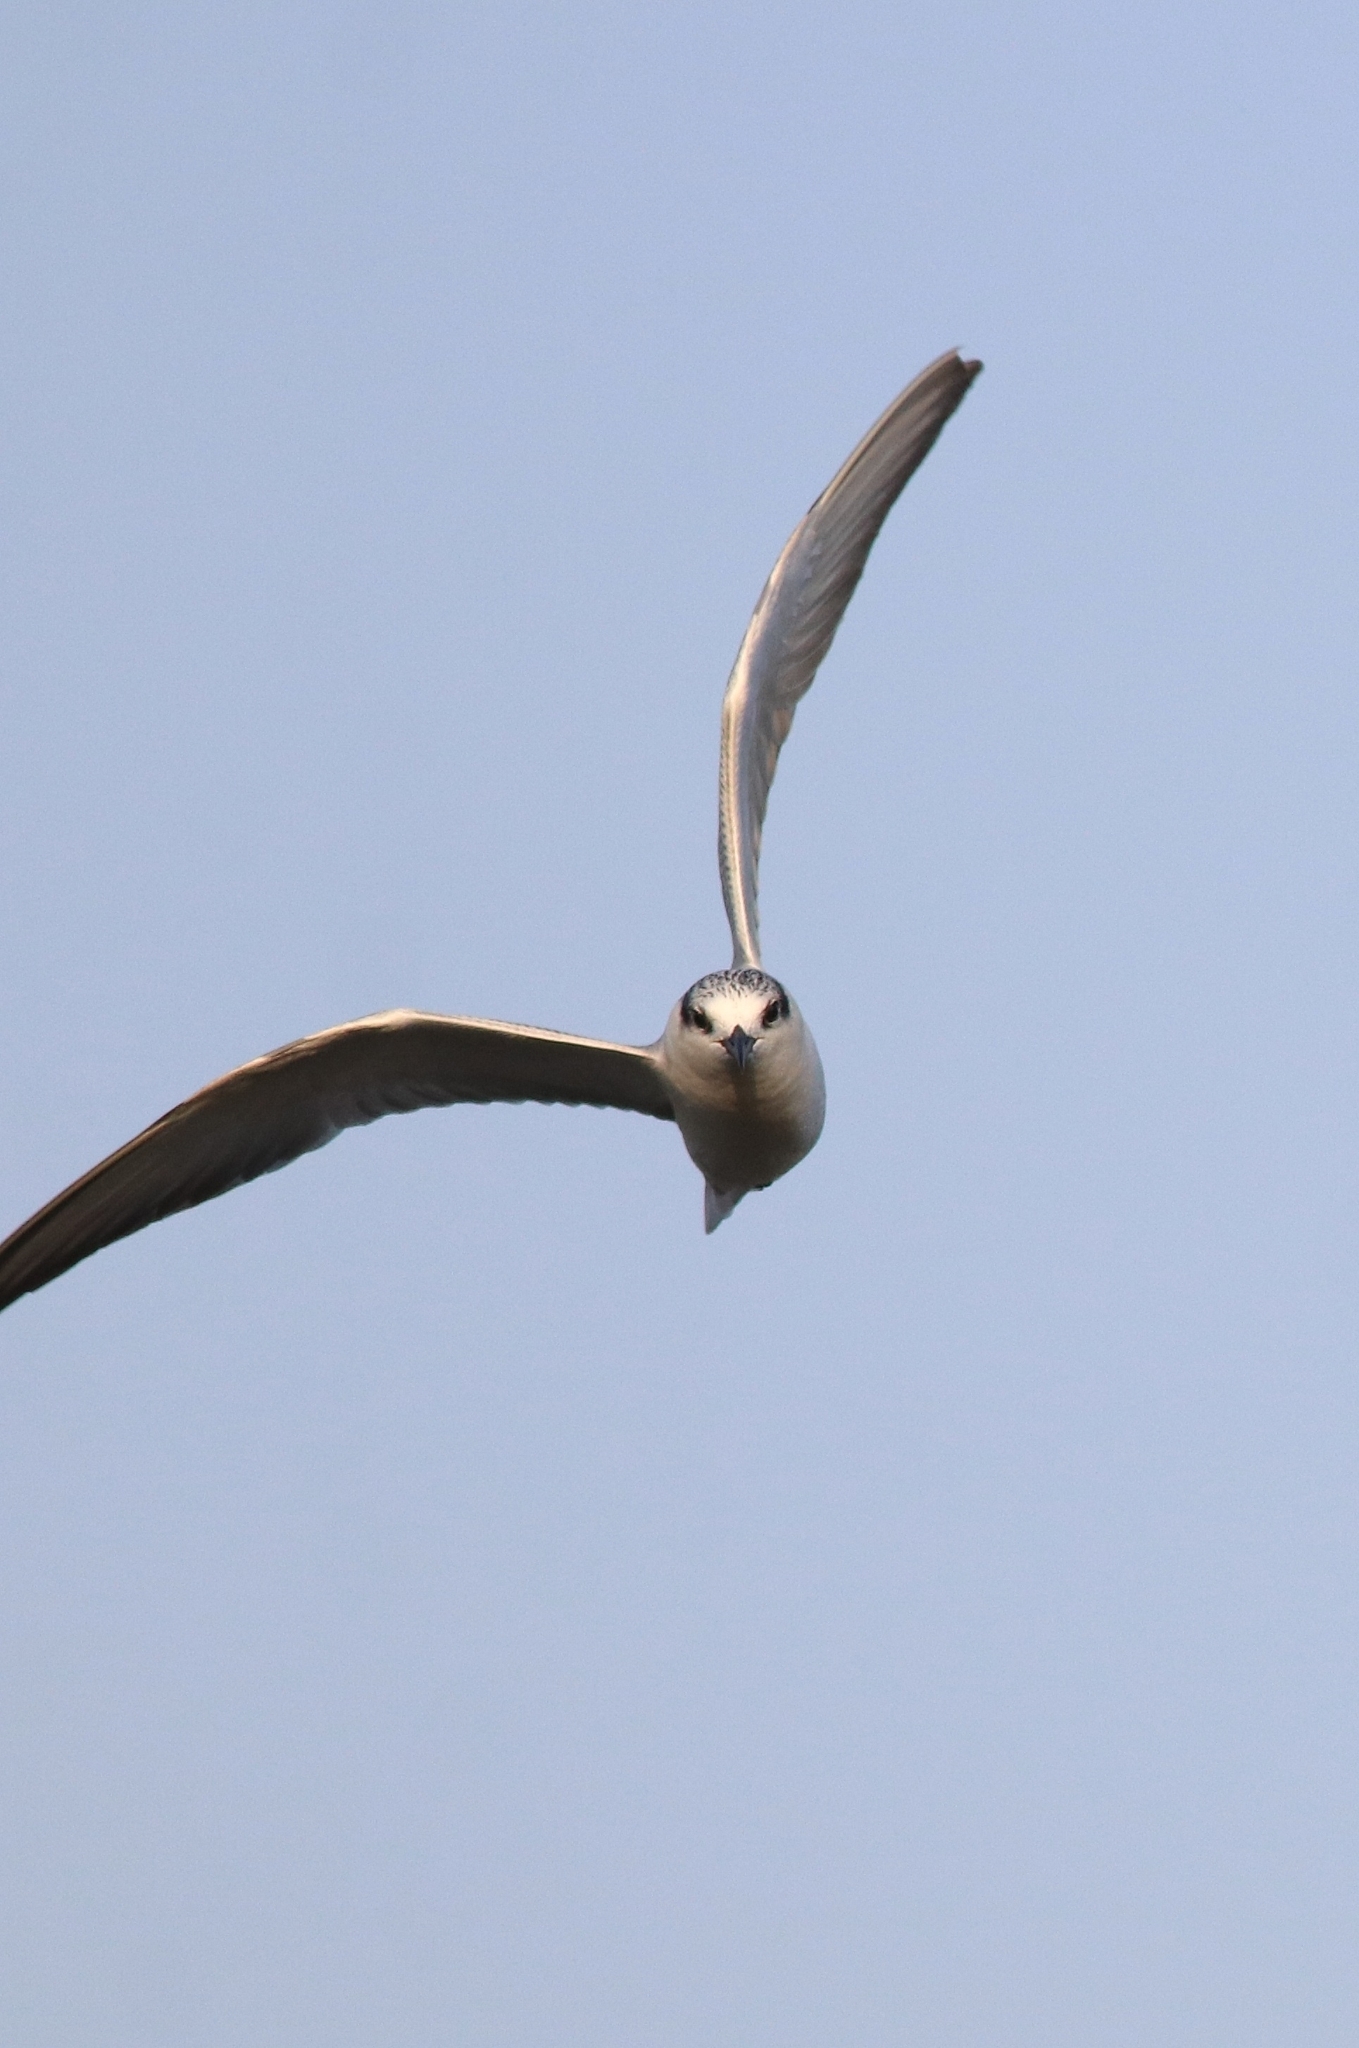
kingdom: Animalia
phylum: Chordata
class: Aves
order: Charadriiformes
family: Laridae
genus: Chlidonias
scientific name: Chlidonias hybrida
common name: Whiskered tern
